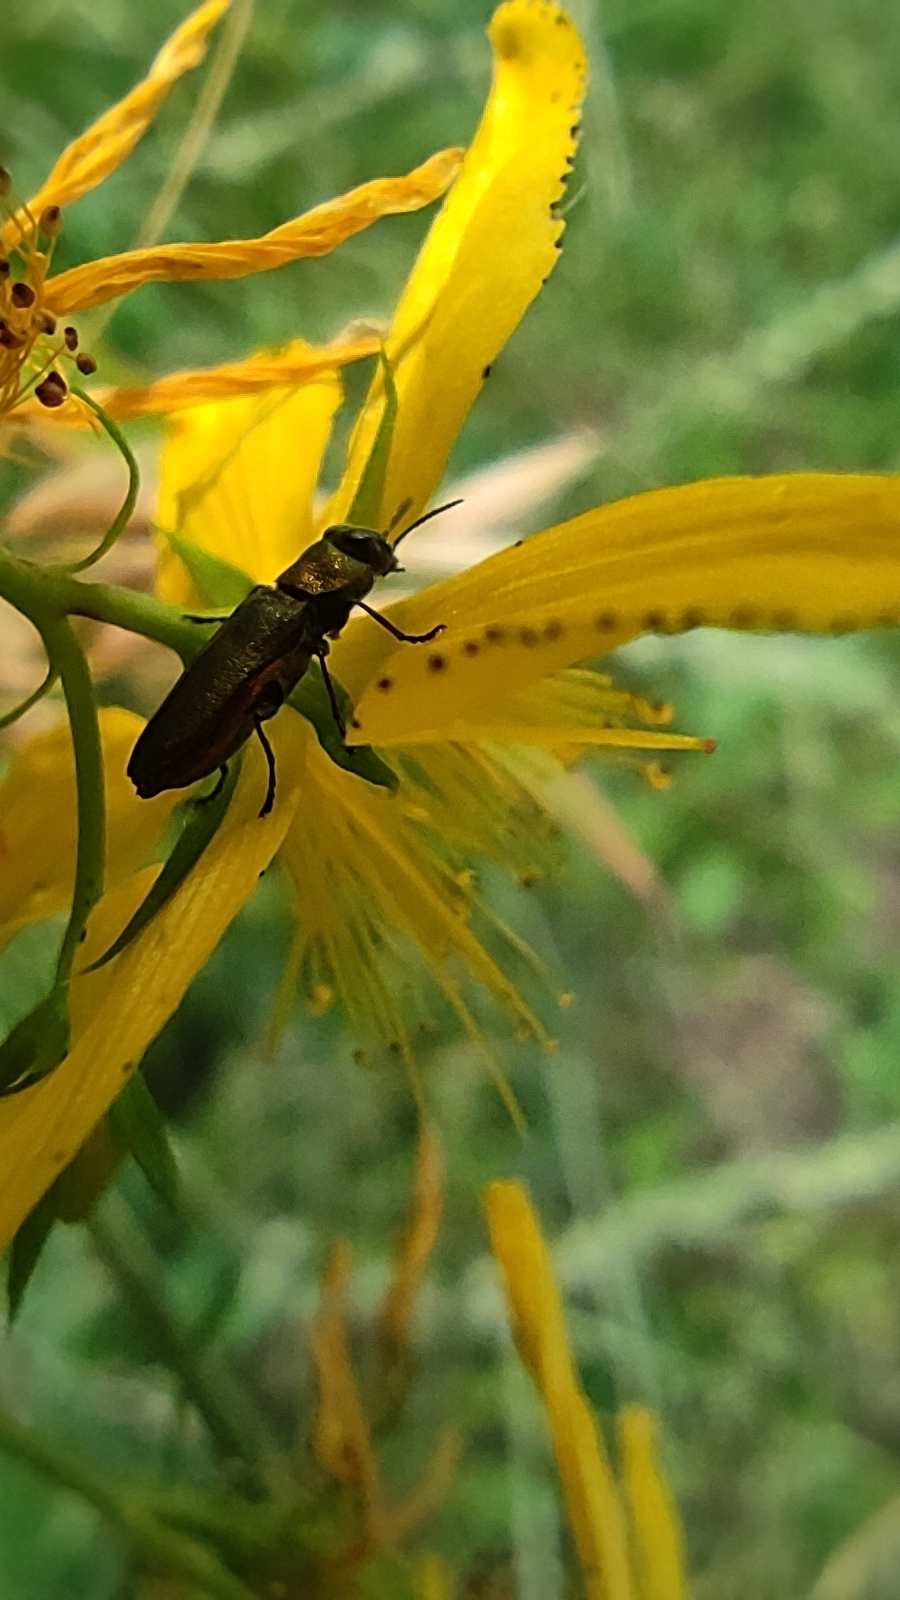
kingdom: Animalia
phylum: Arthropoda
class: Insecta
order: Coleoptera
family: Buprestidae
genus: Anthaxia
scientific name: Anthaxia nitidula
